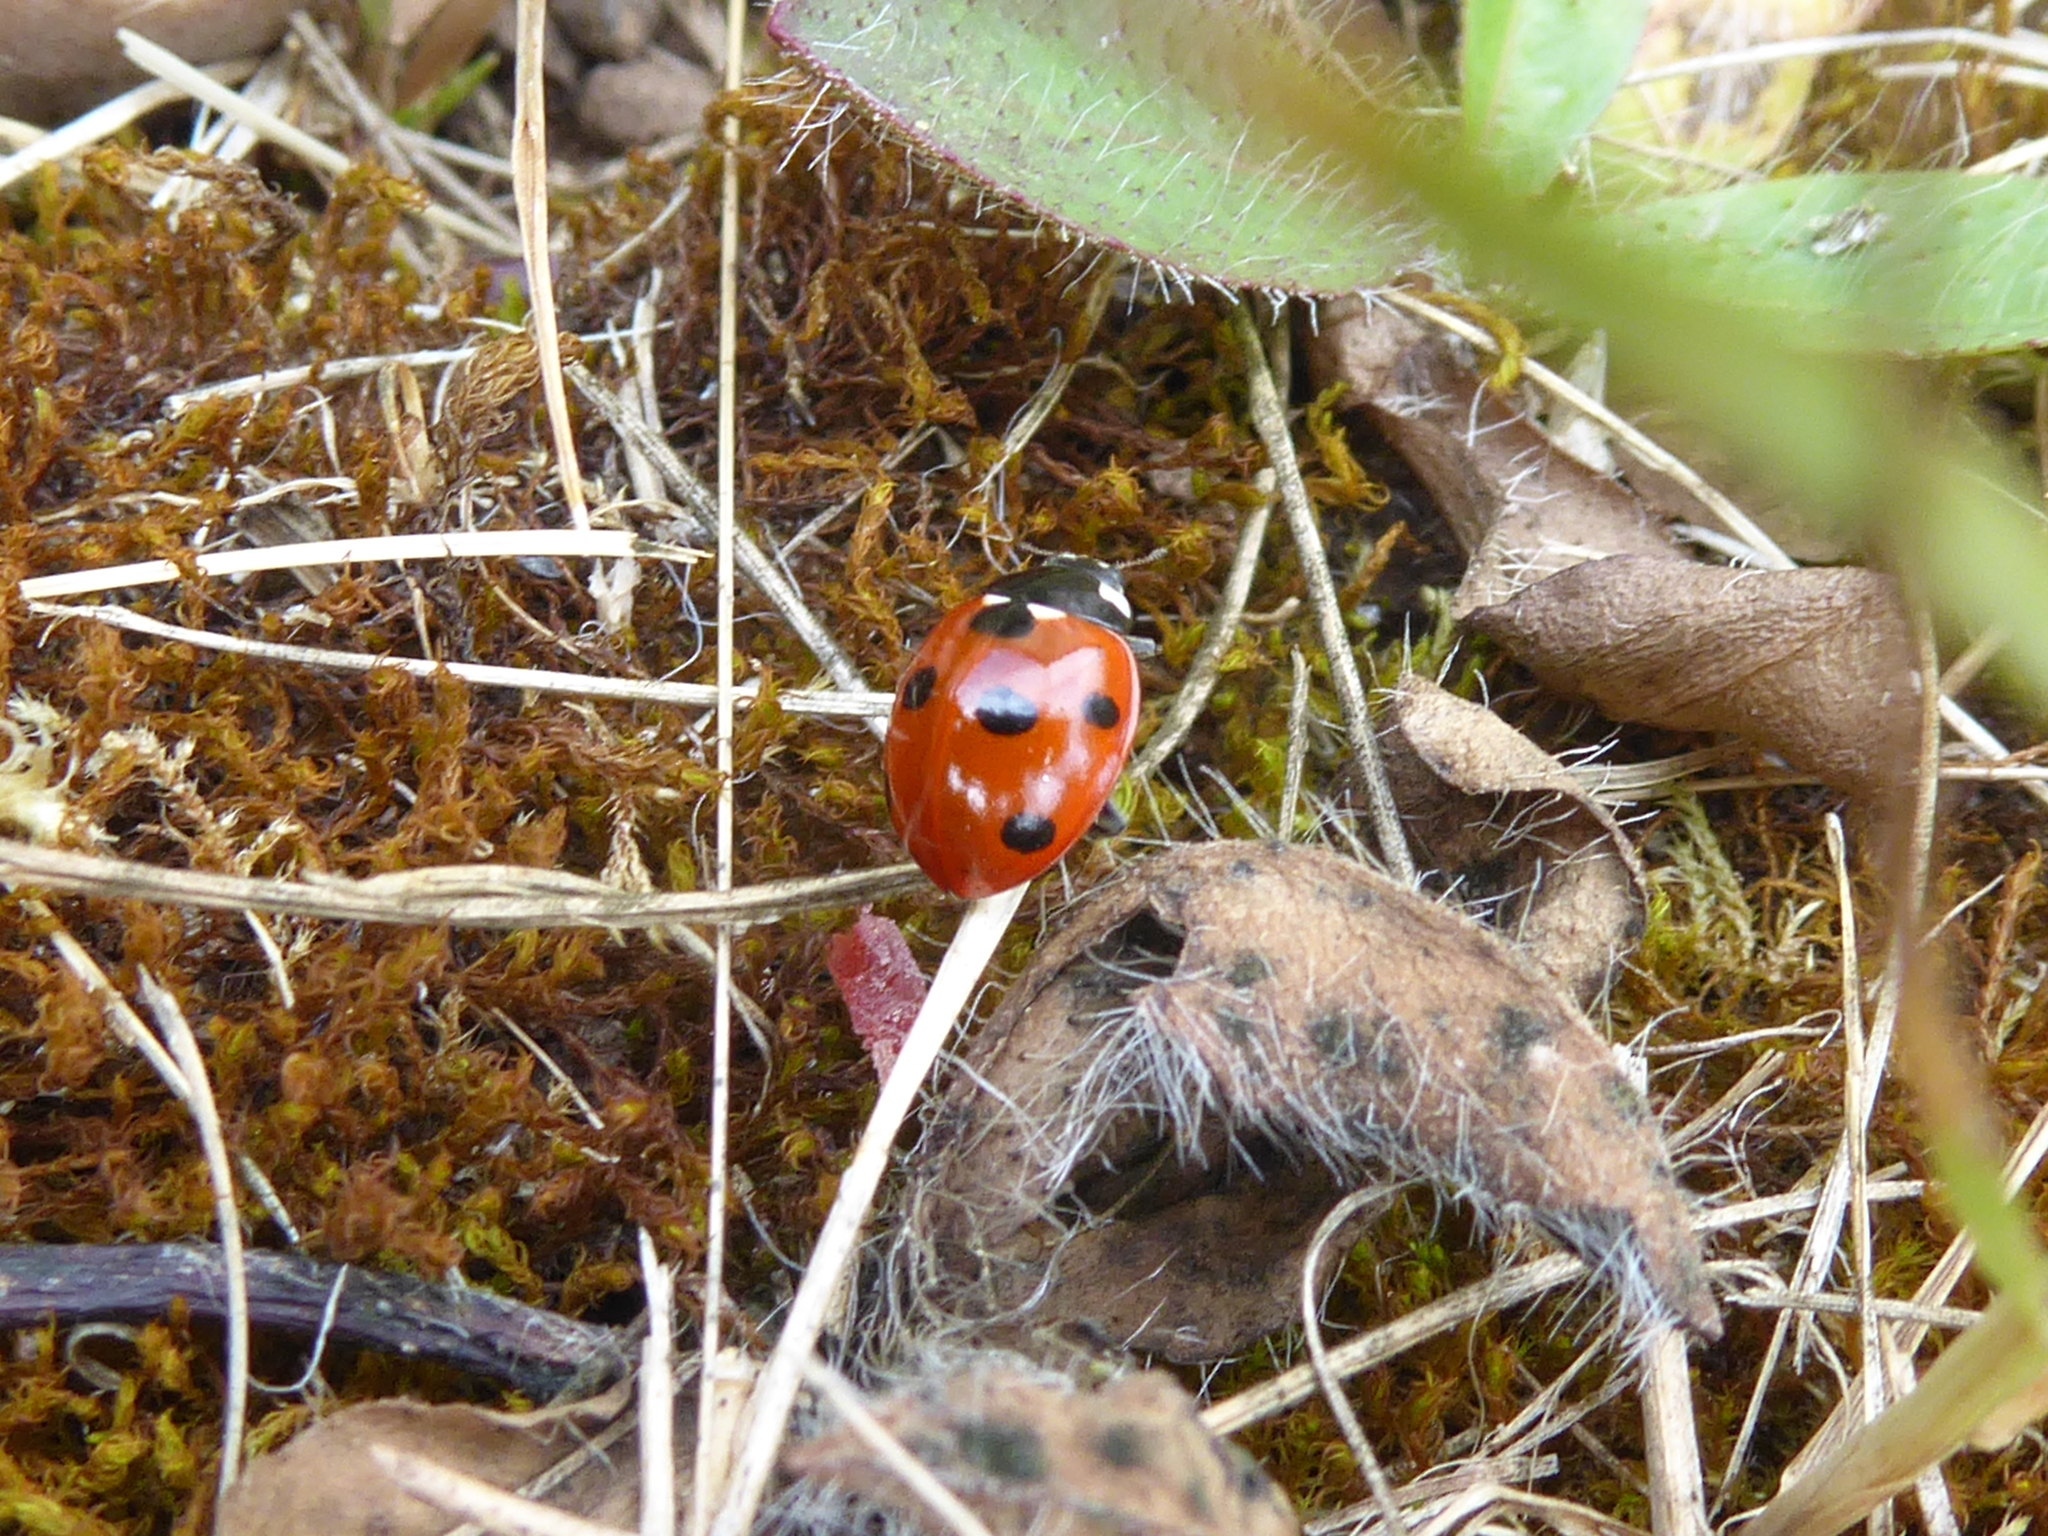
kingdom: Animalia
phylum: Arthropoda
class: Insecta
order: Coleoptera
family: Coccinellidae
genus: Coccinella
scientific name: Coccinella septempunctata
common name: Sevenspotted lady beetle
